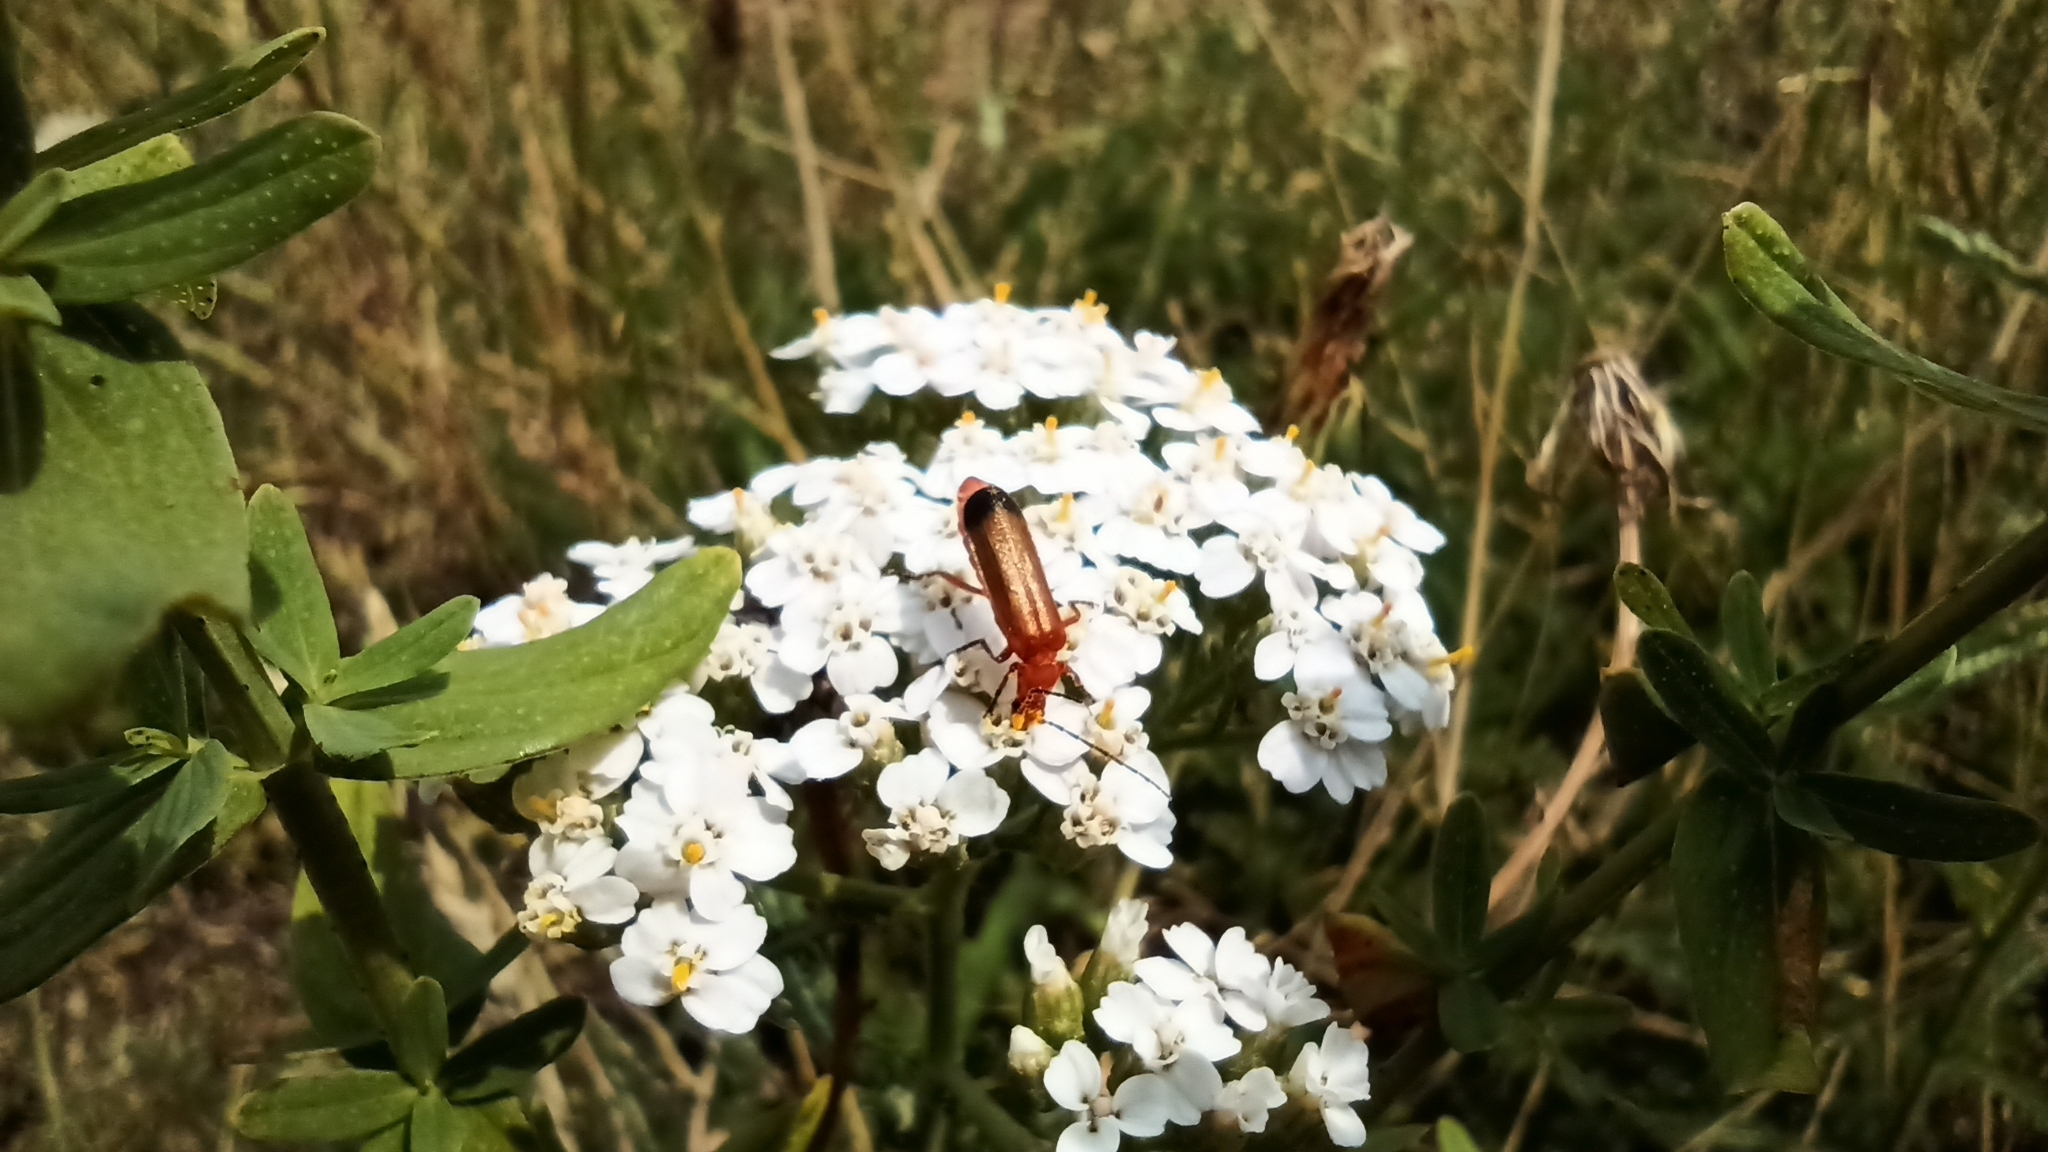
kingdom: Animalia
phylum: Arthropoda
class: Insecta
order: Coleoptera
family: Cantharidae
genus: Rhagonycha
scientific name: Rhagonycha fulva
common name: Common red soldier beetle
